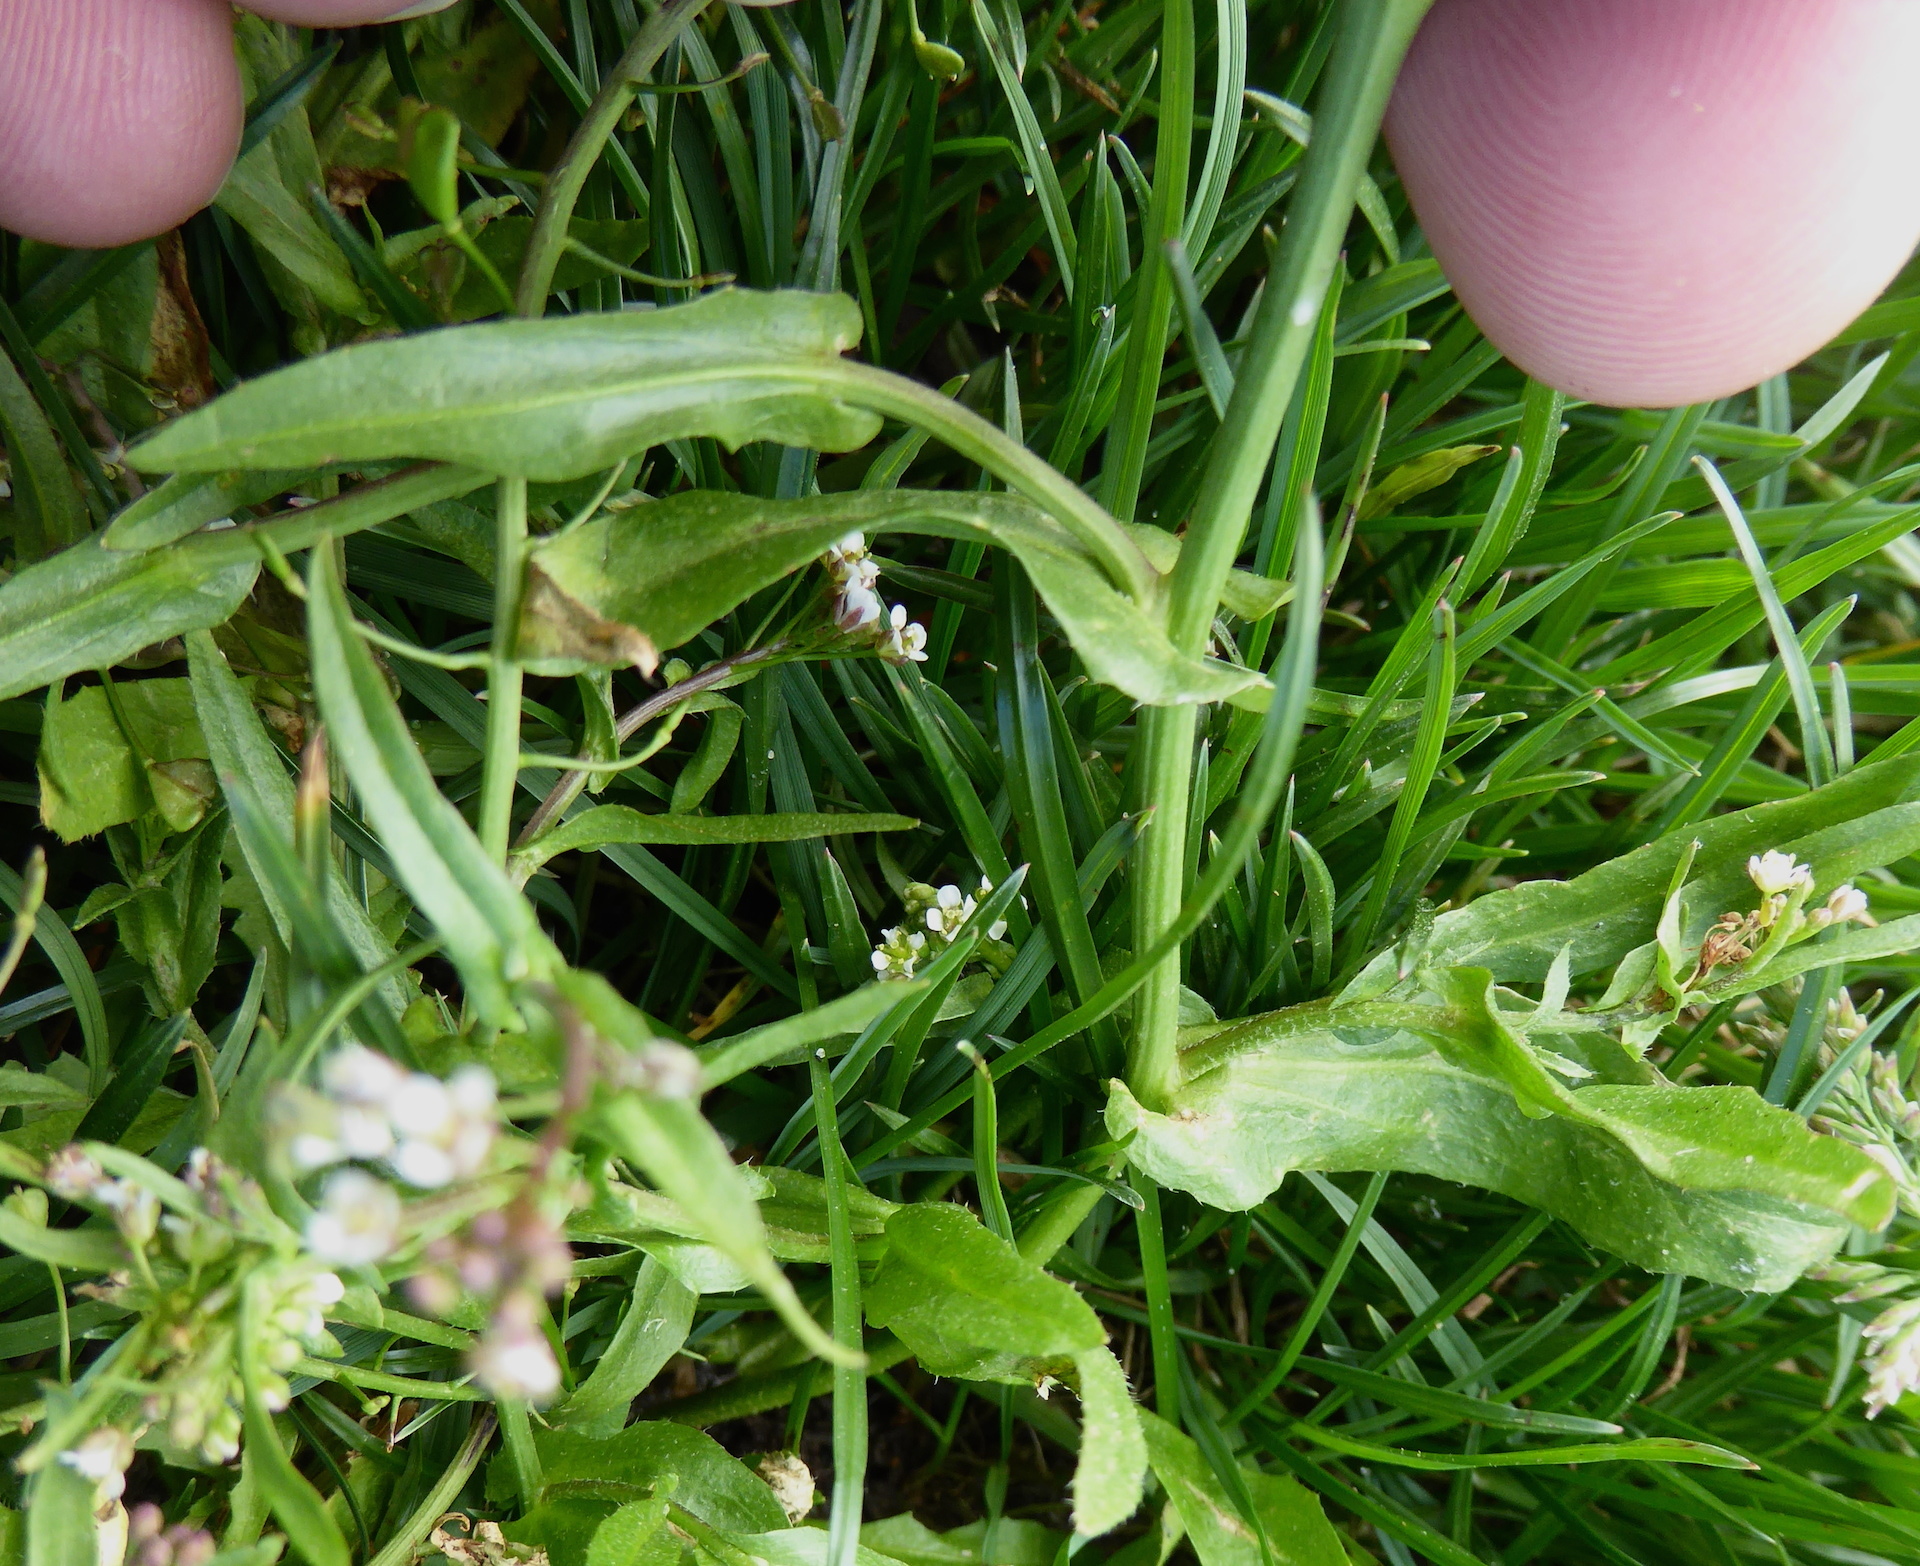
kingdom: Plantae
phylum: Tracheophyta
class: Magnoliopsida
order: Brassicales
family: Brassicaceae
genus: Capsella
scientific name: Capsella bursa-pastoris
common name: Shepherd's purse
